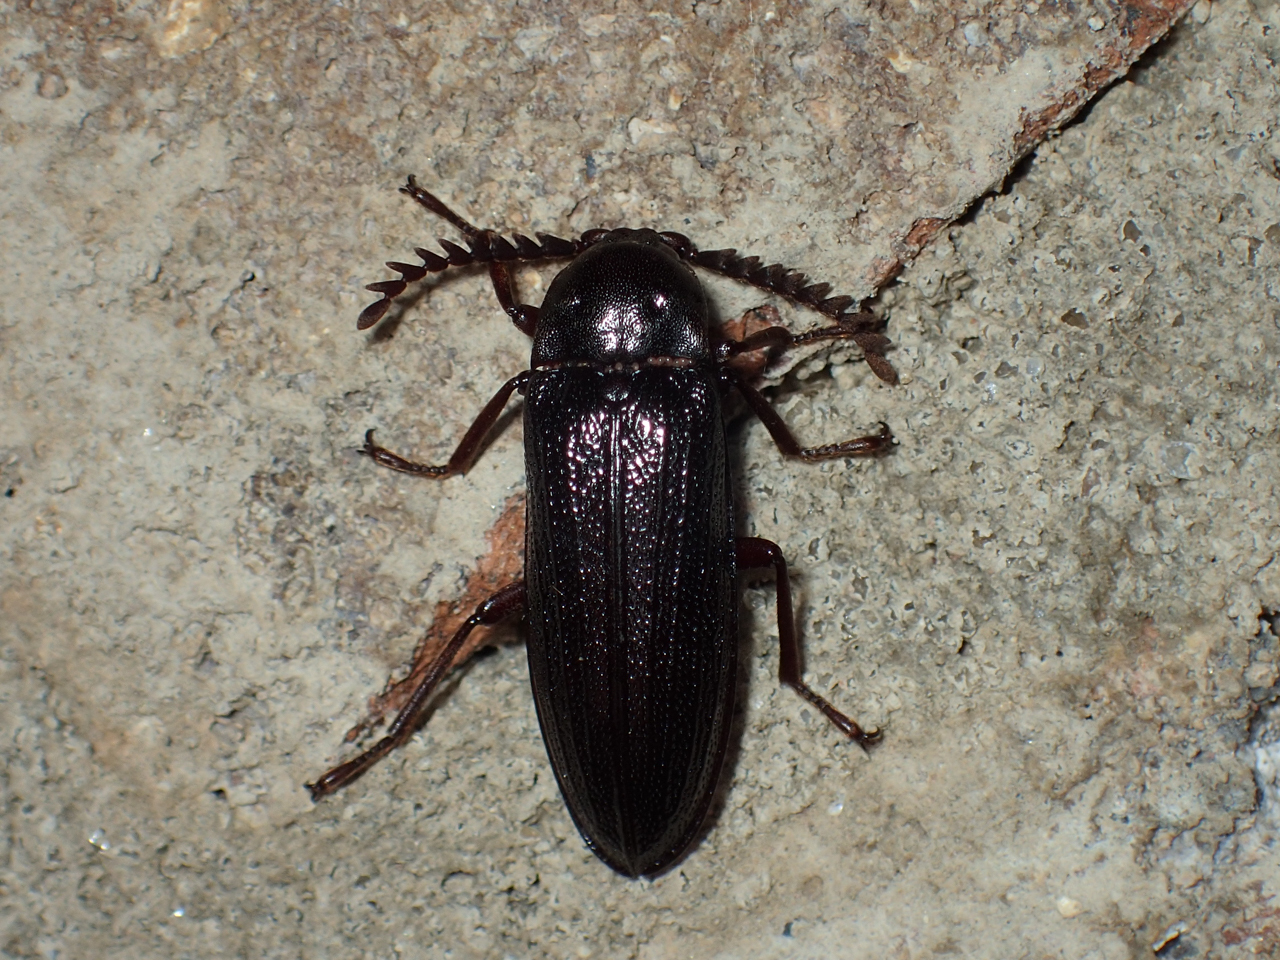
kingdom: Animalia
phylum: Arthropoda
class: Insecta
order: Coleoptera
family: Callirhipidae
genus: Zenoa
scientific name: Zenoa picea
